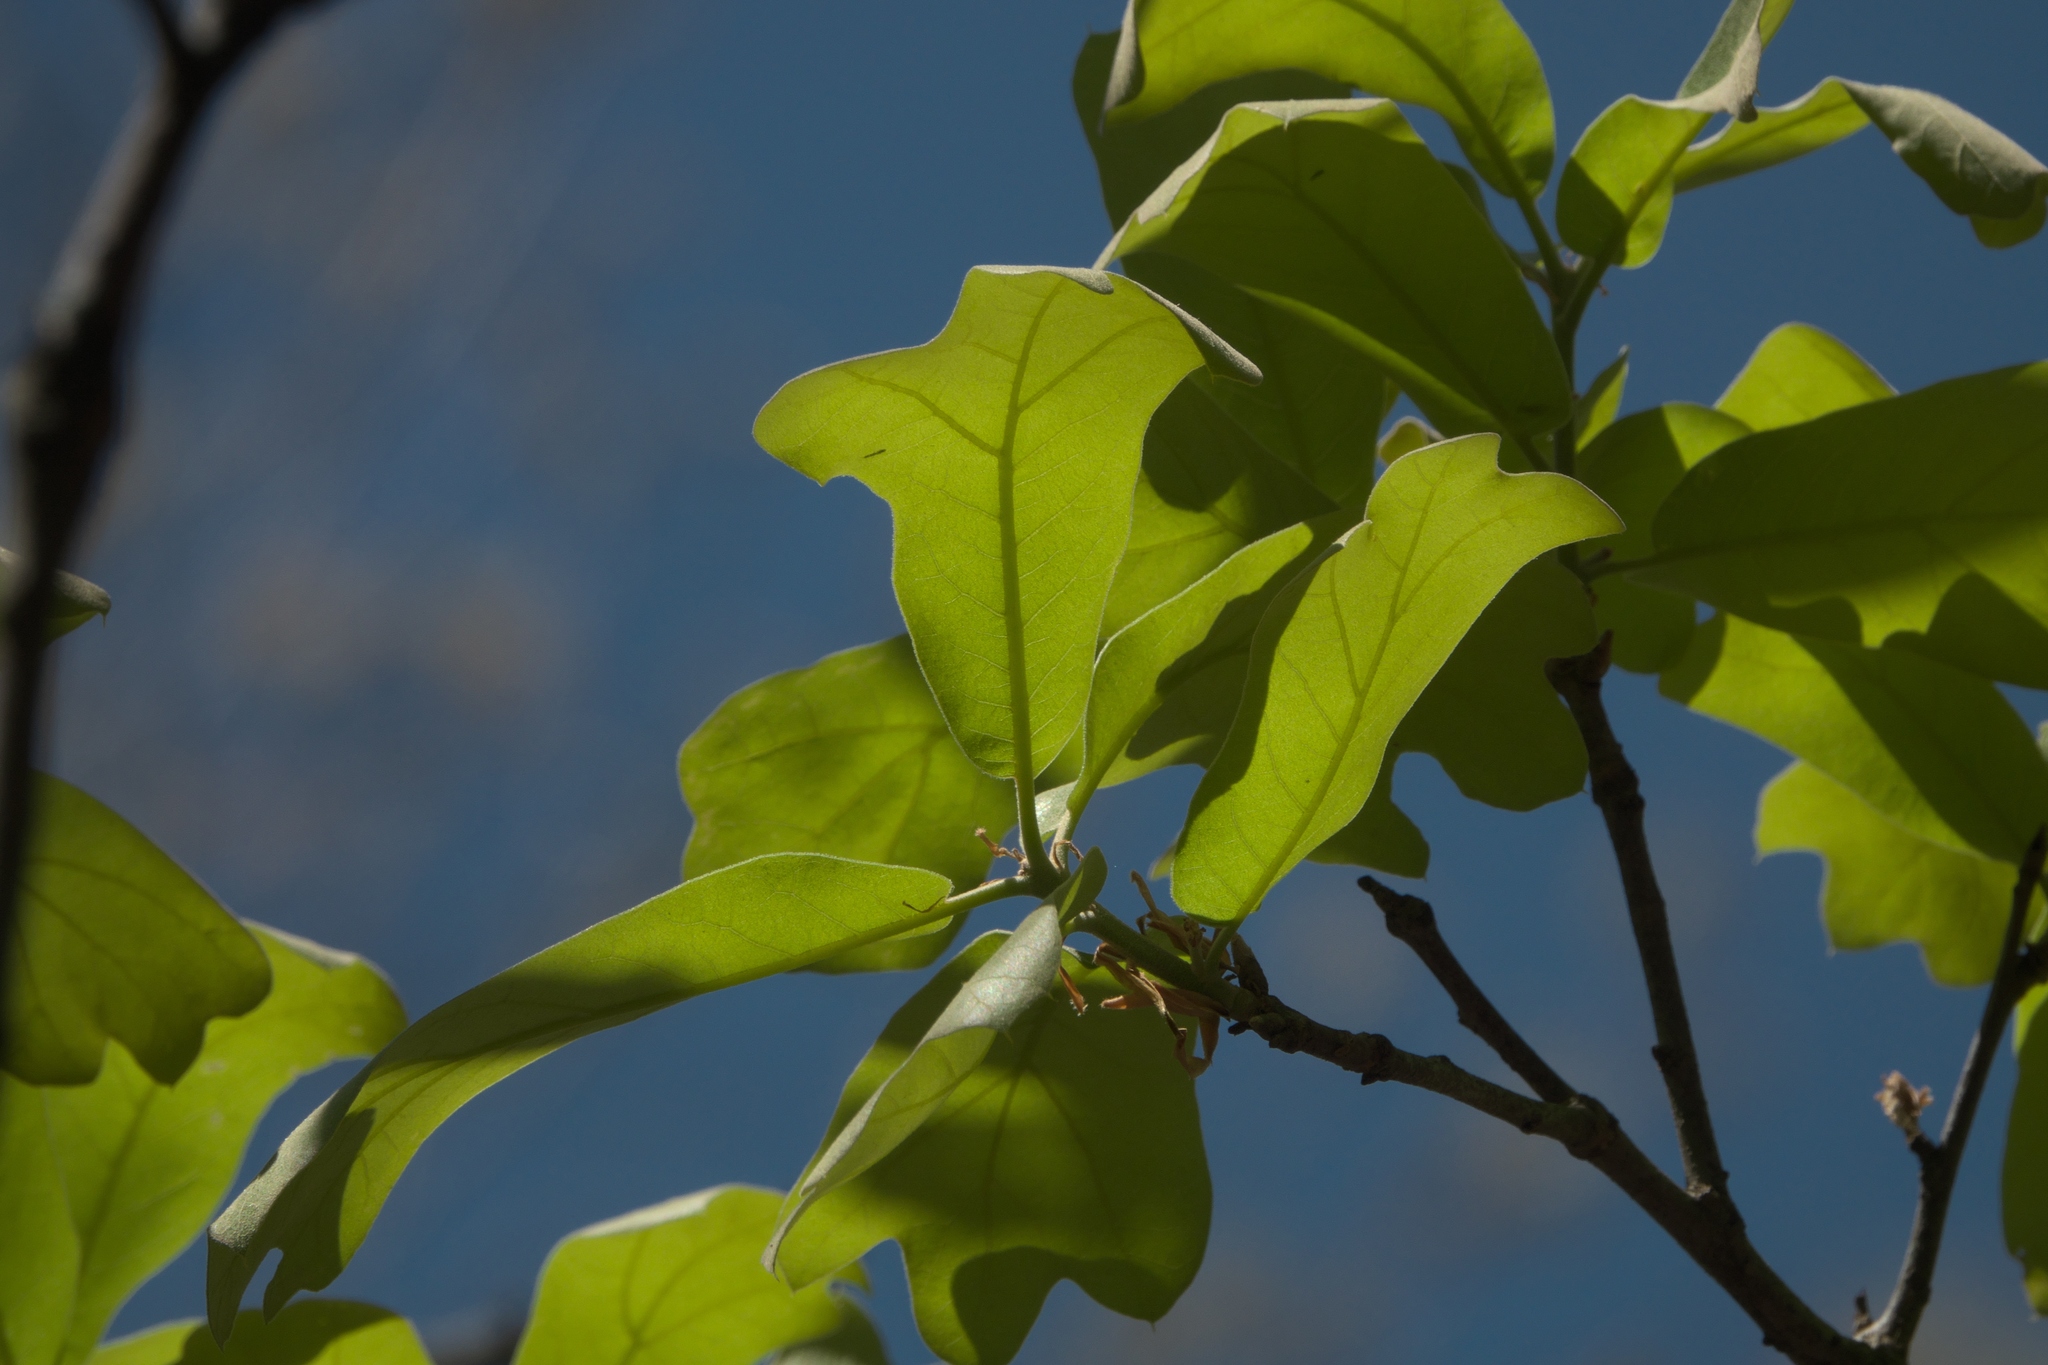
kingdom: Plantae
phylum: Tracheophyta
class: Magnoliopsida
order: Fagales
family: Fagaceae
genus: Quercus
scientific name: Quercus marilandica
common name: Blackjack oak
